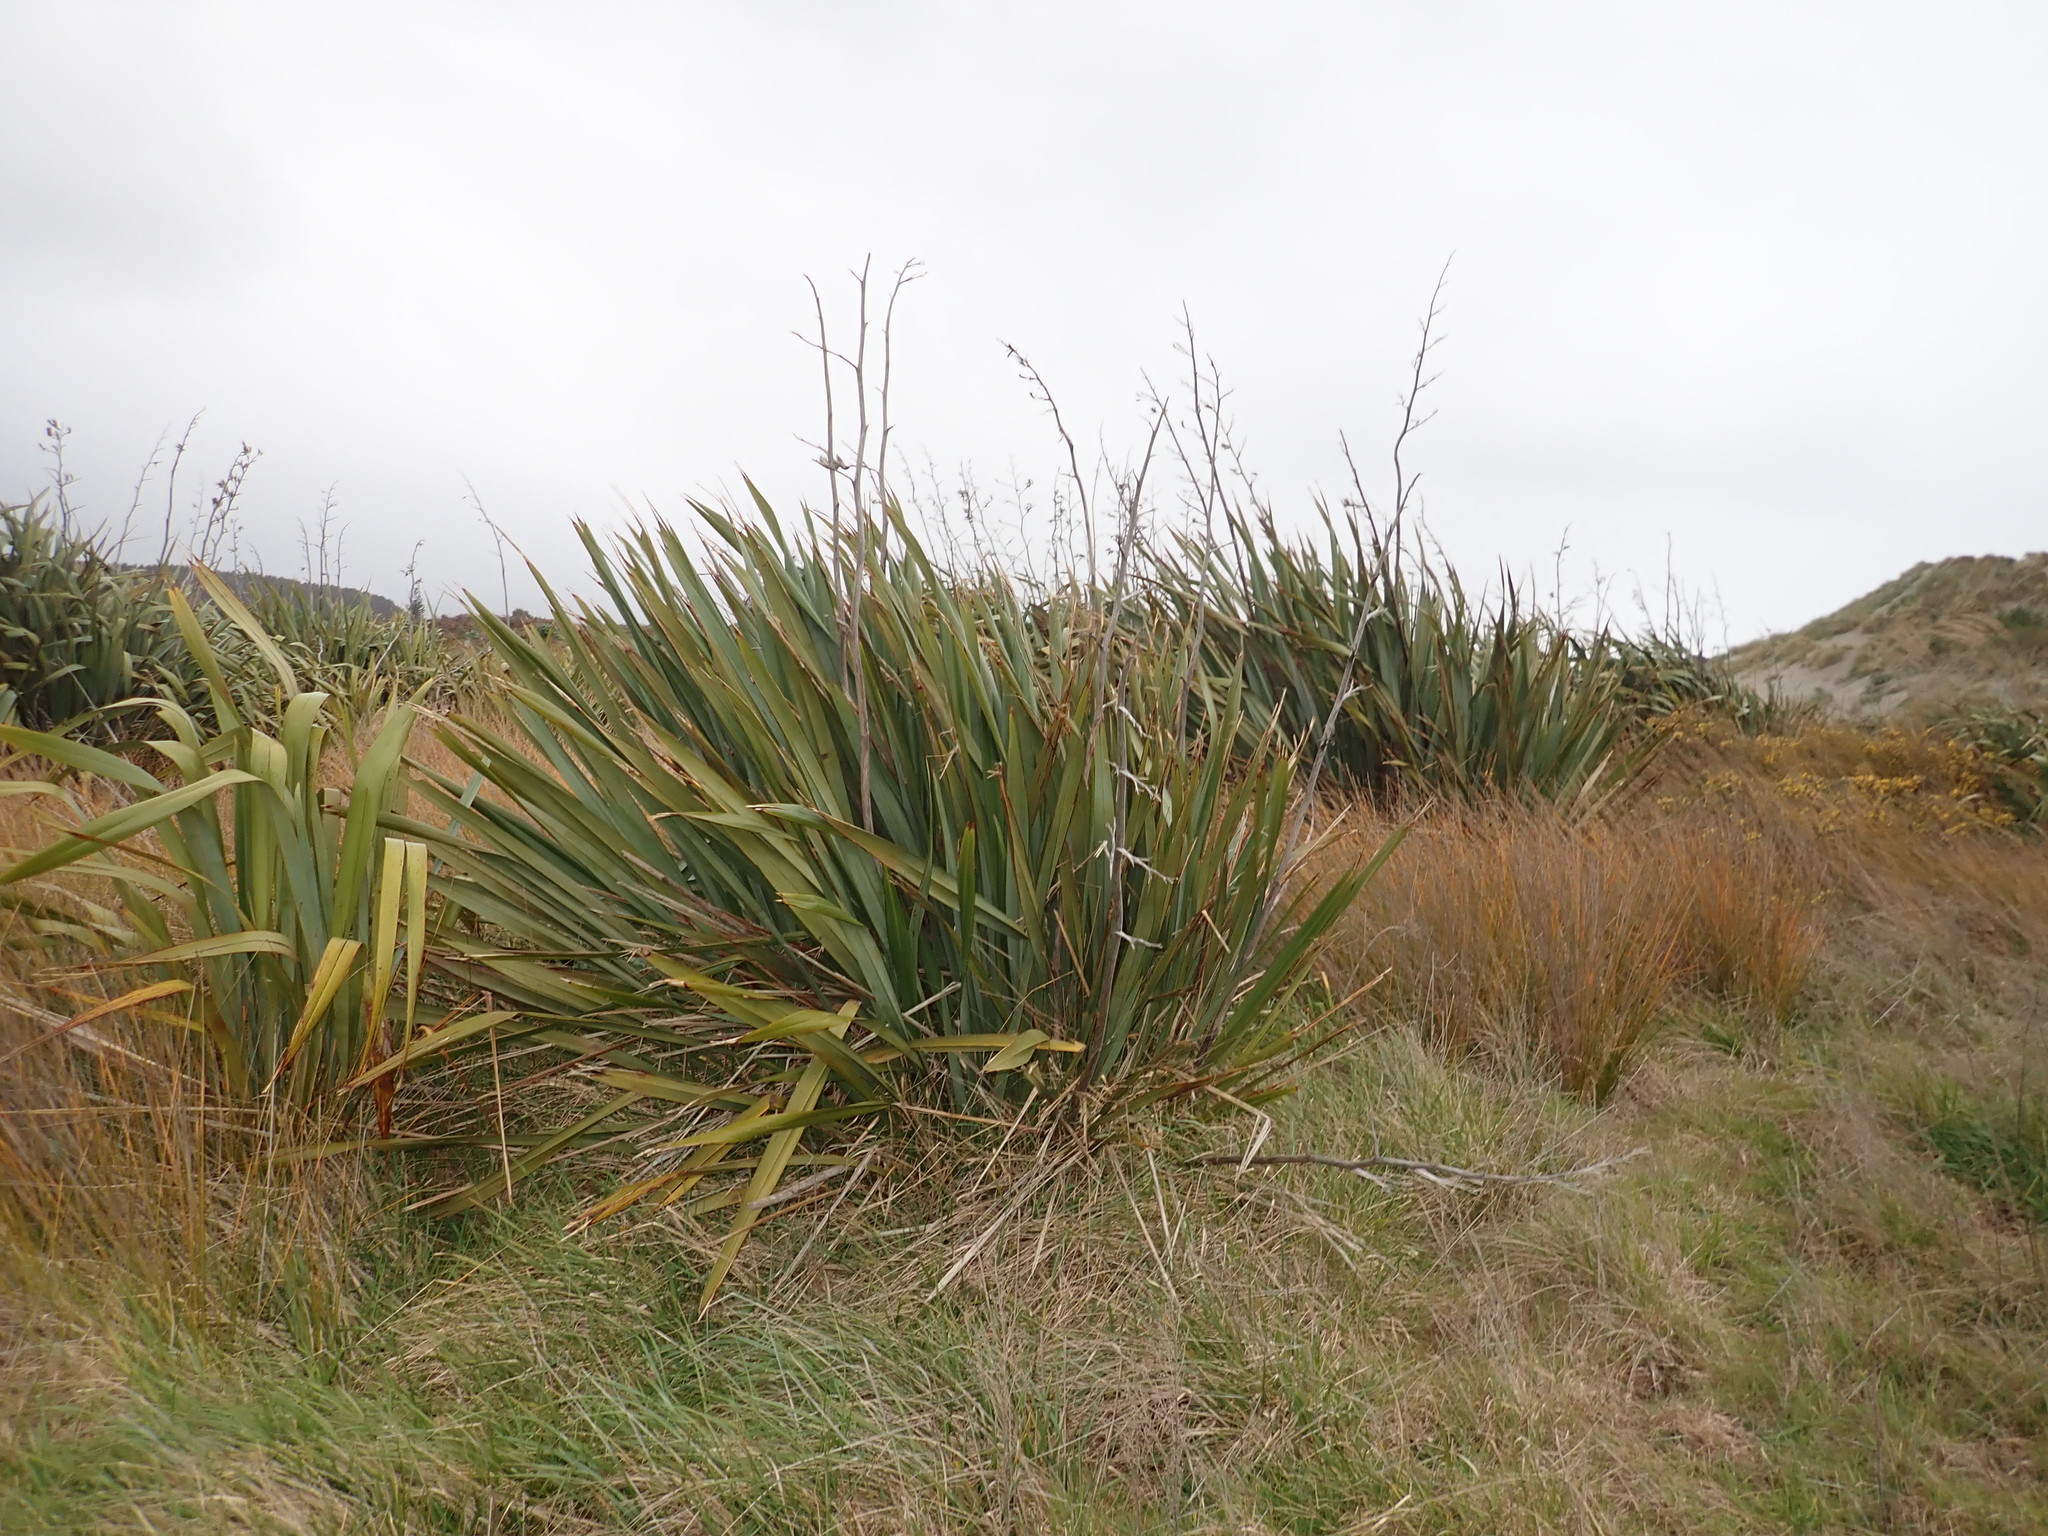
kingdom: Plantae
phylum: Tracheophyta
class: Liliopsida
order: Asparagales
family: Asphodelaceae
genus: Phormium
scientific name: Phormium tenax
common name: New zealand flax
